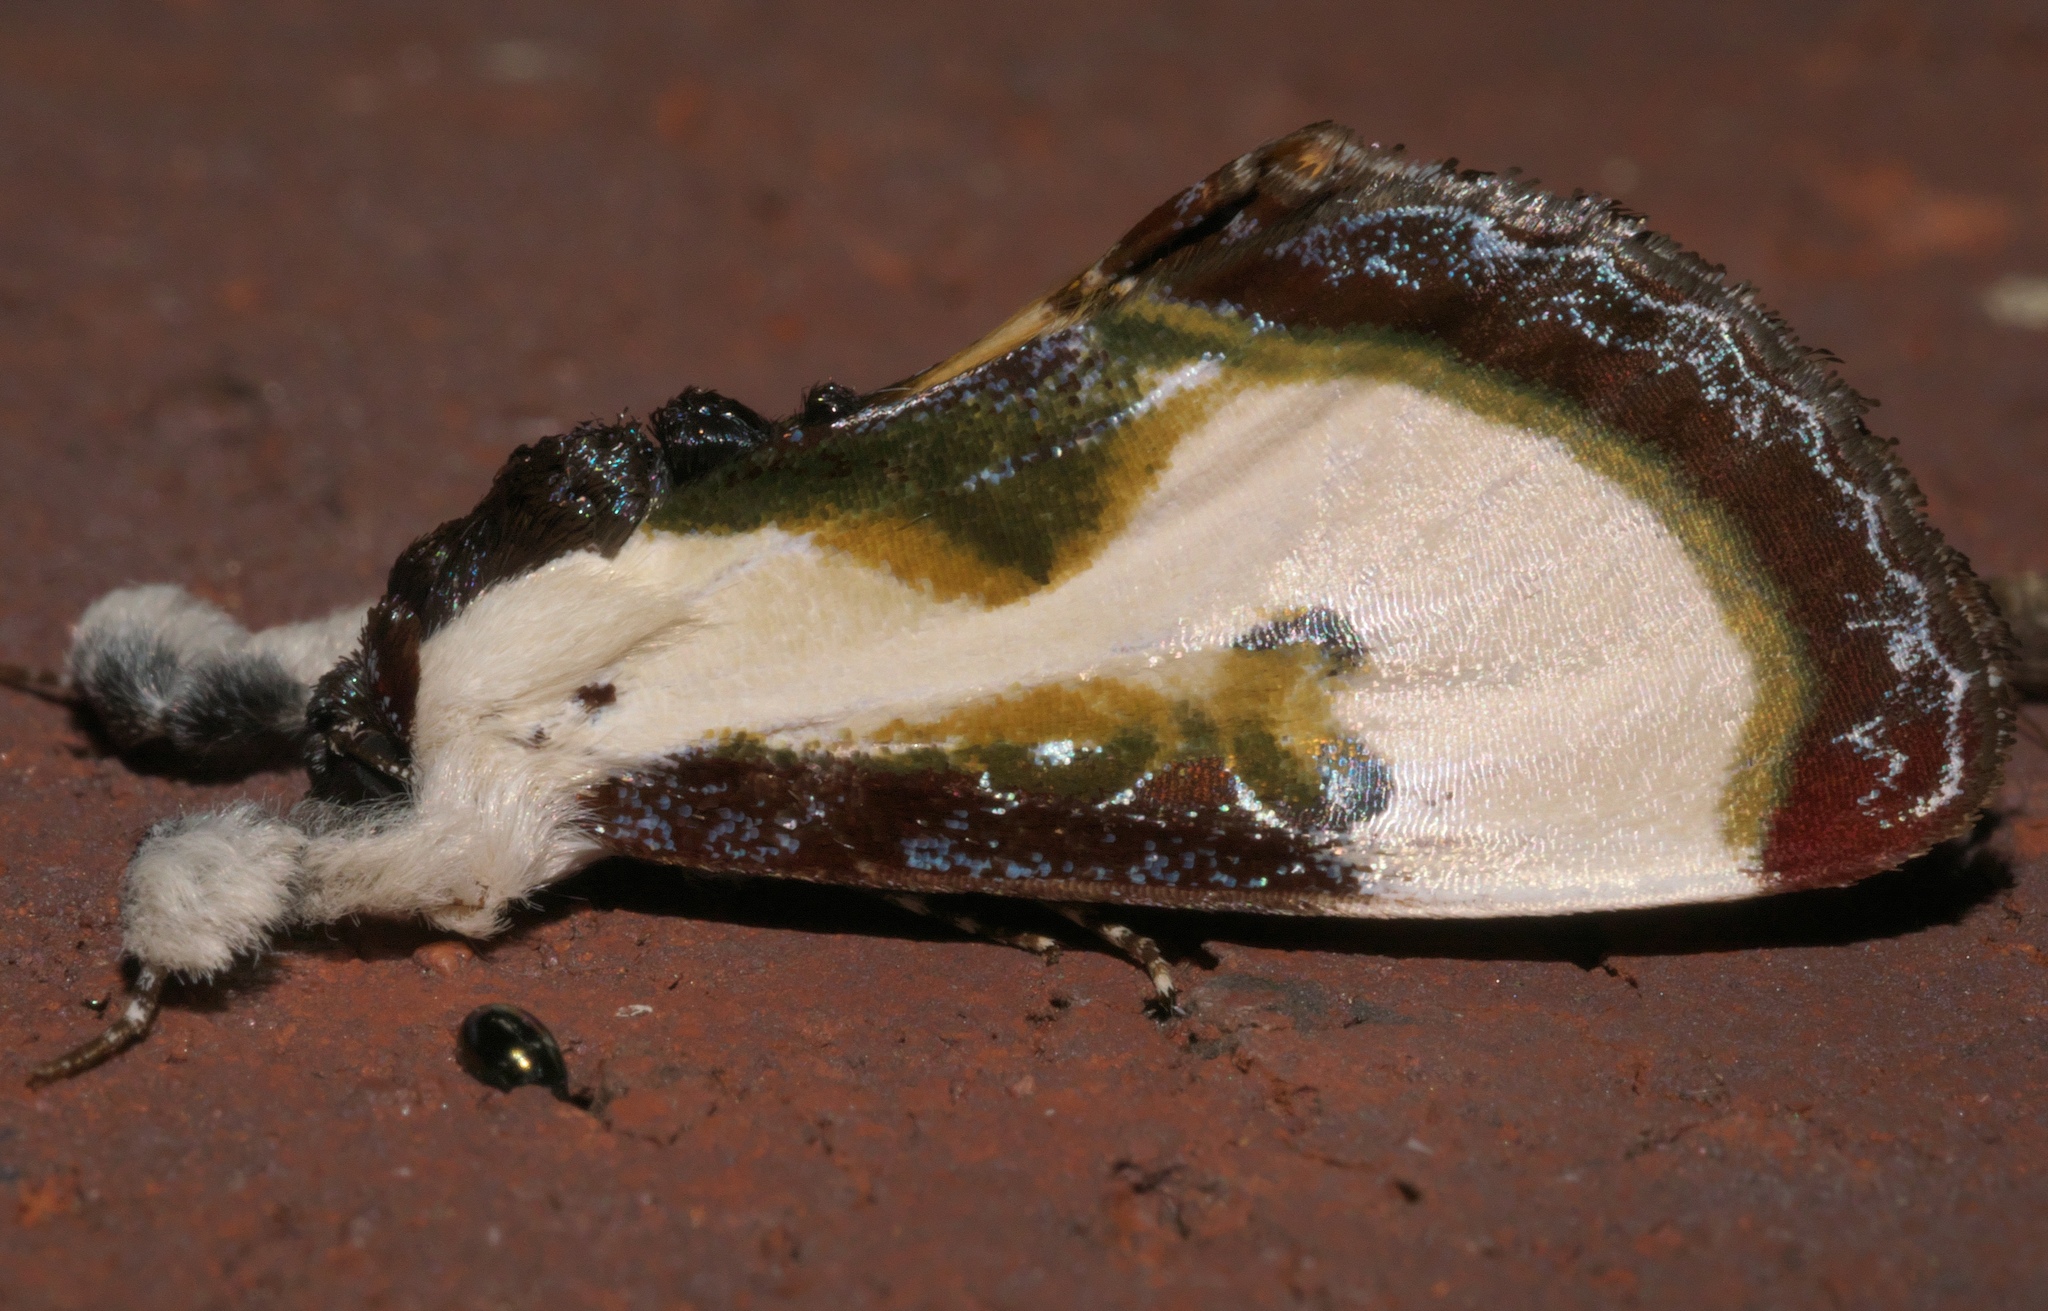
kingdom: Animalia
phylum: Arthropoda
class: Insecta
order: Lepidoptera
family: Noctuidae
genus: Eudryas
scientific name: Eudryas grata
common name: Beautiful wood-nymph
